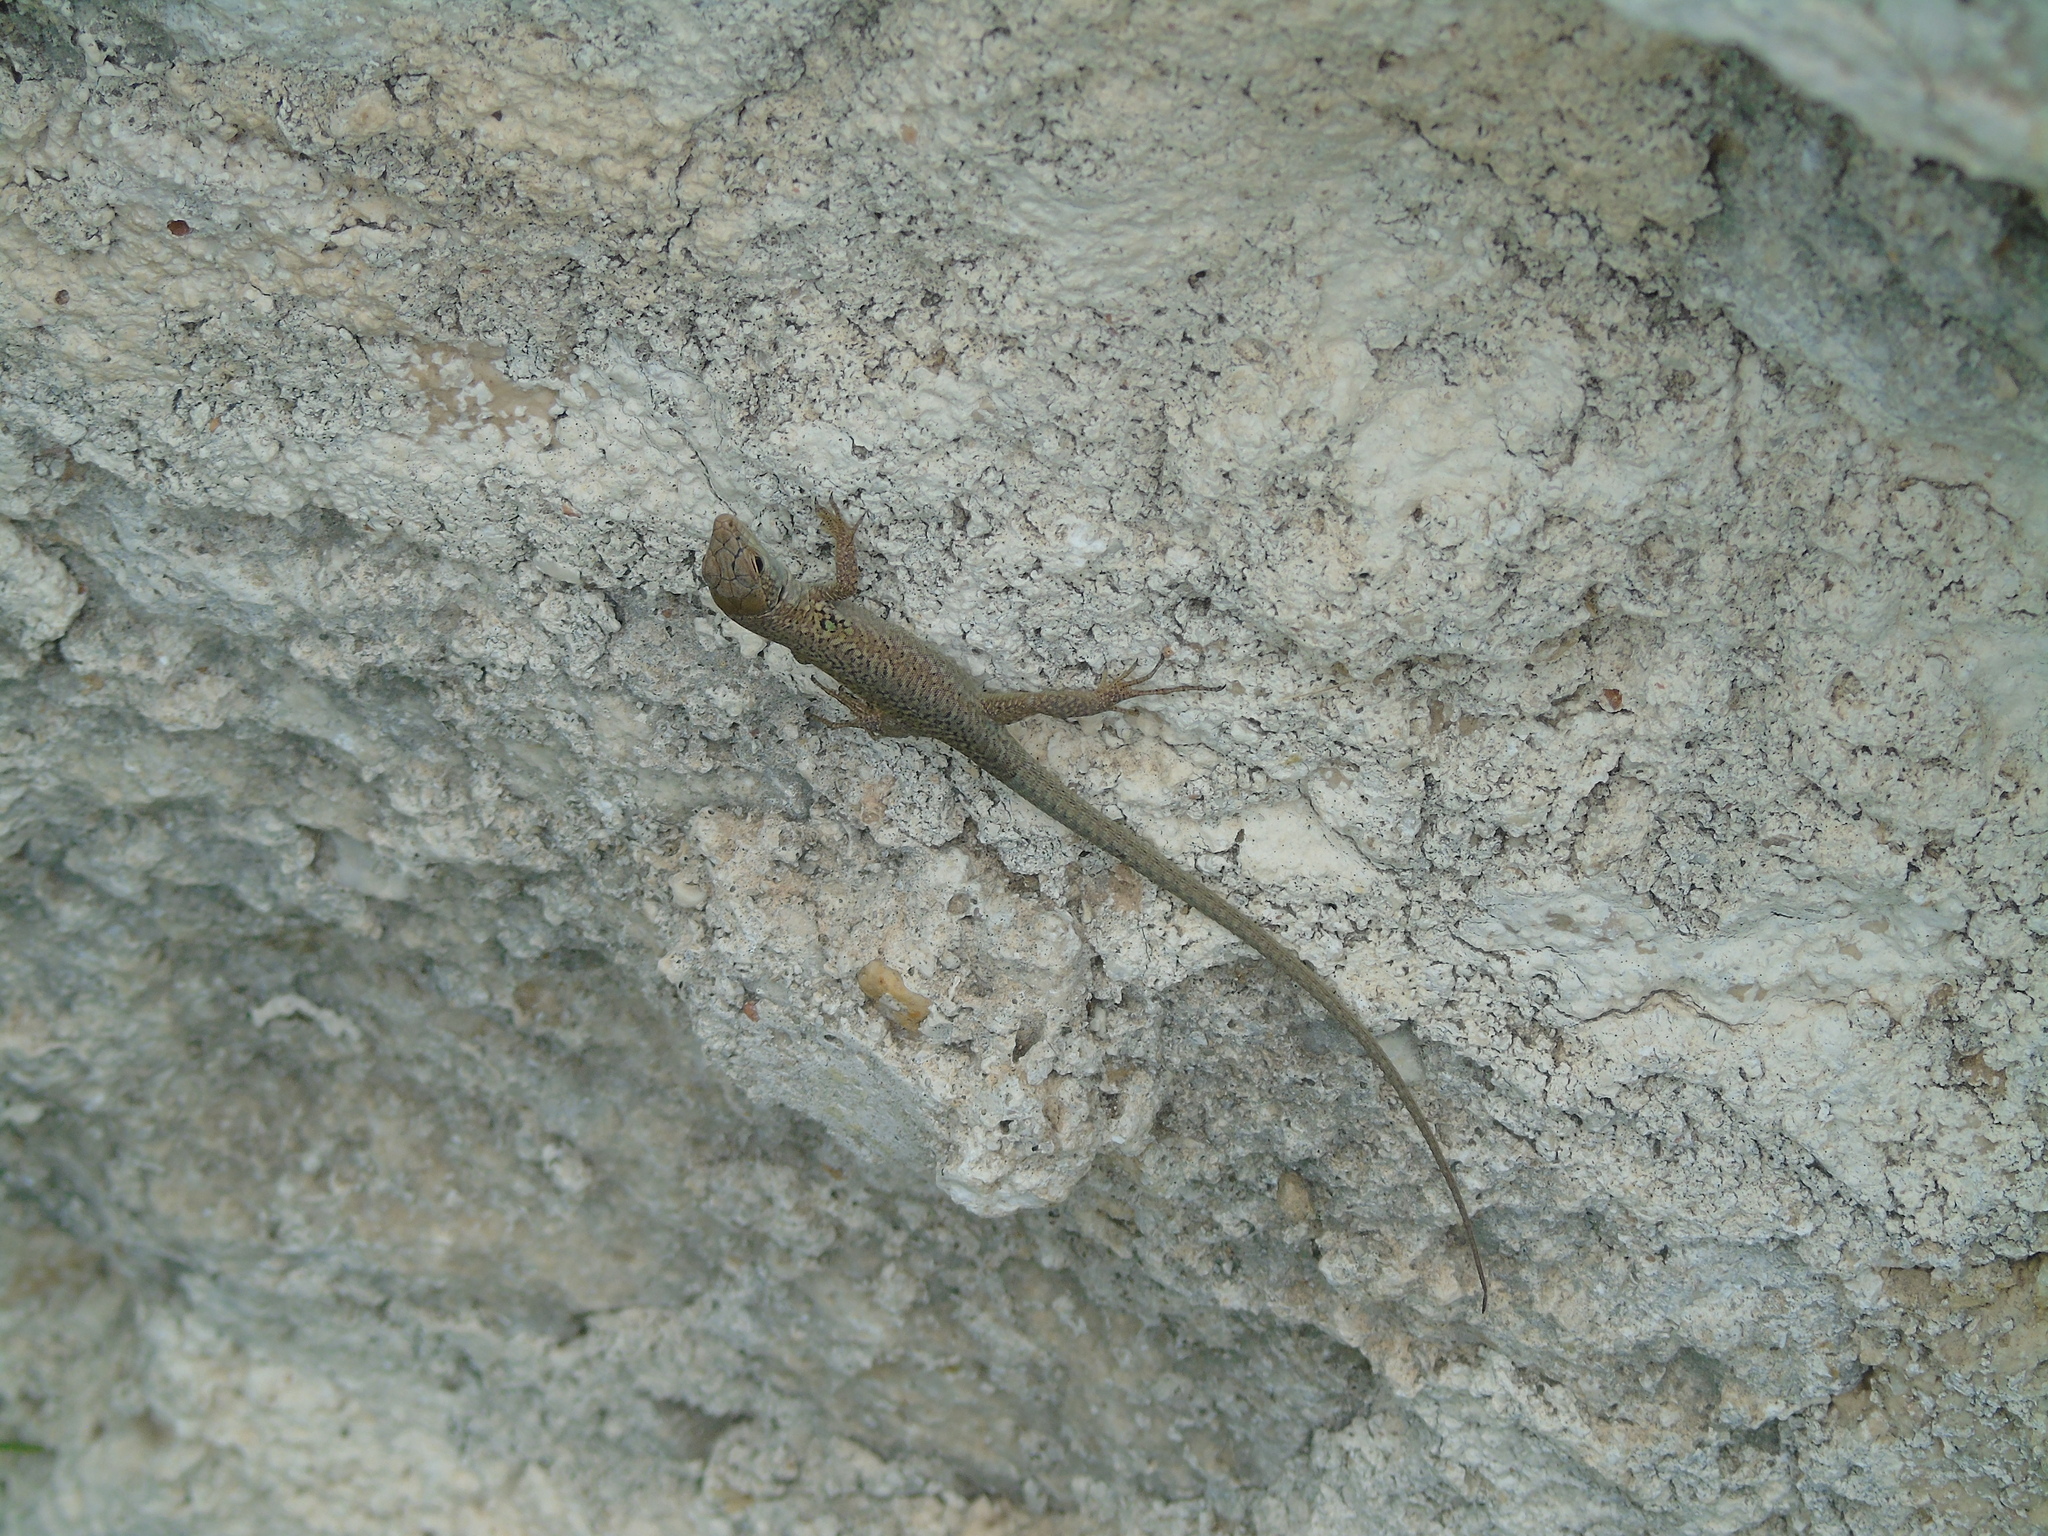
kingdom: Animalia
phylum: Chordata
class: Squamata
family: Lacertidae
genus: Podarcis
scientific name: Podarcis siculus
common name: Italian wall lizard
